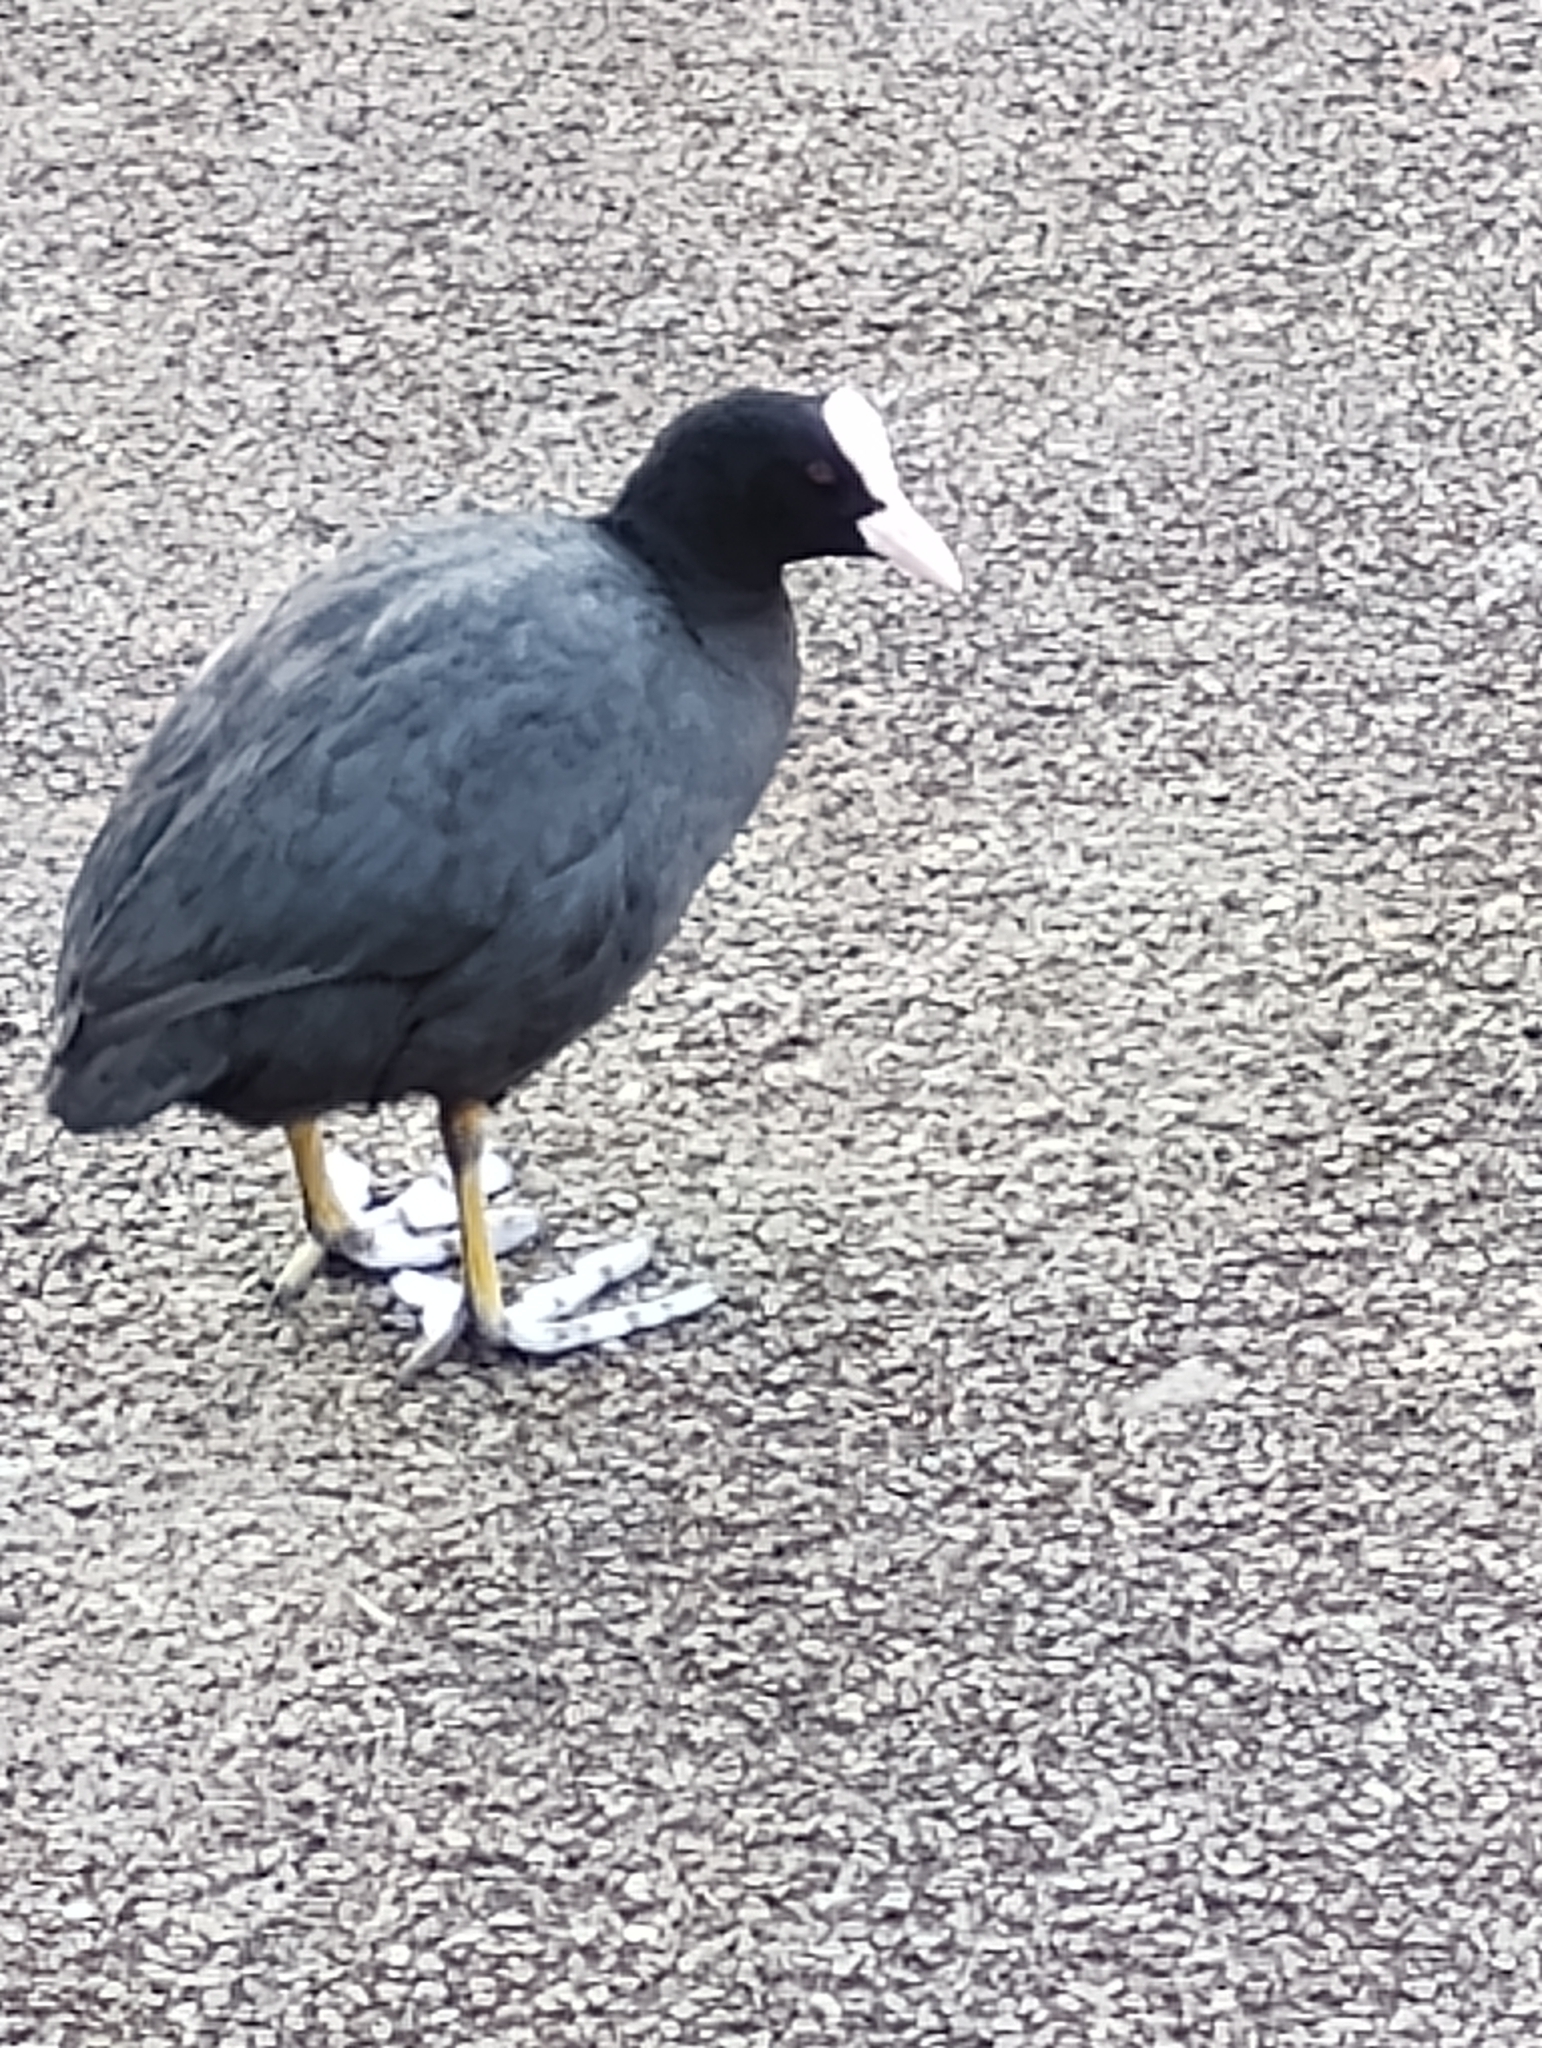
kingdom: Animalia
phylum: Chordata
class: Aves
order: Gruiformes
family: Rallidae
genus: Fulica
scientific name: Fulica atra
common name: Eurasian coot
